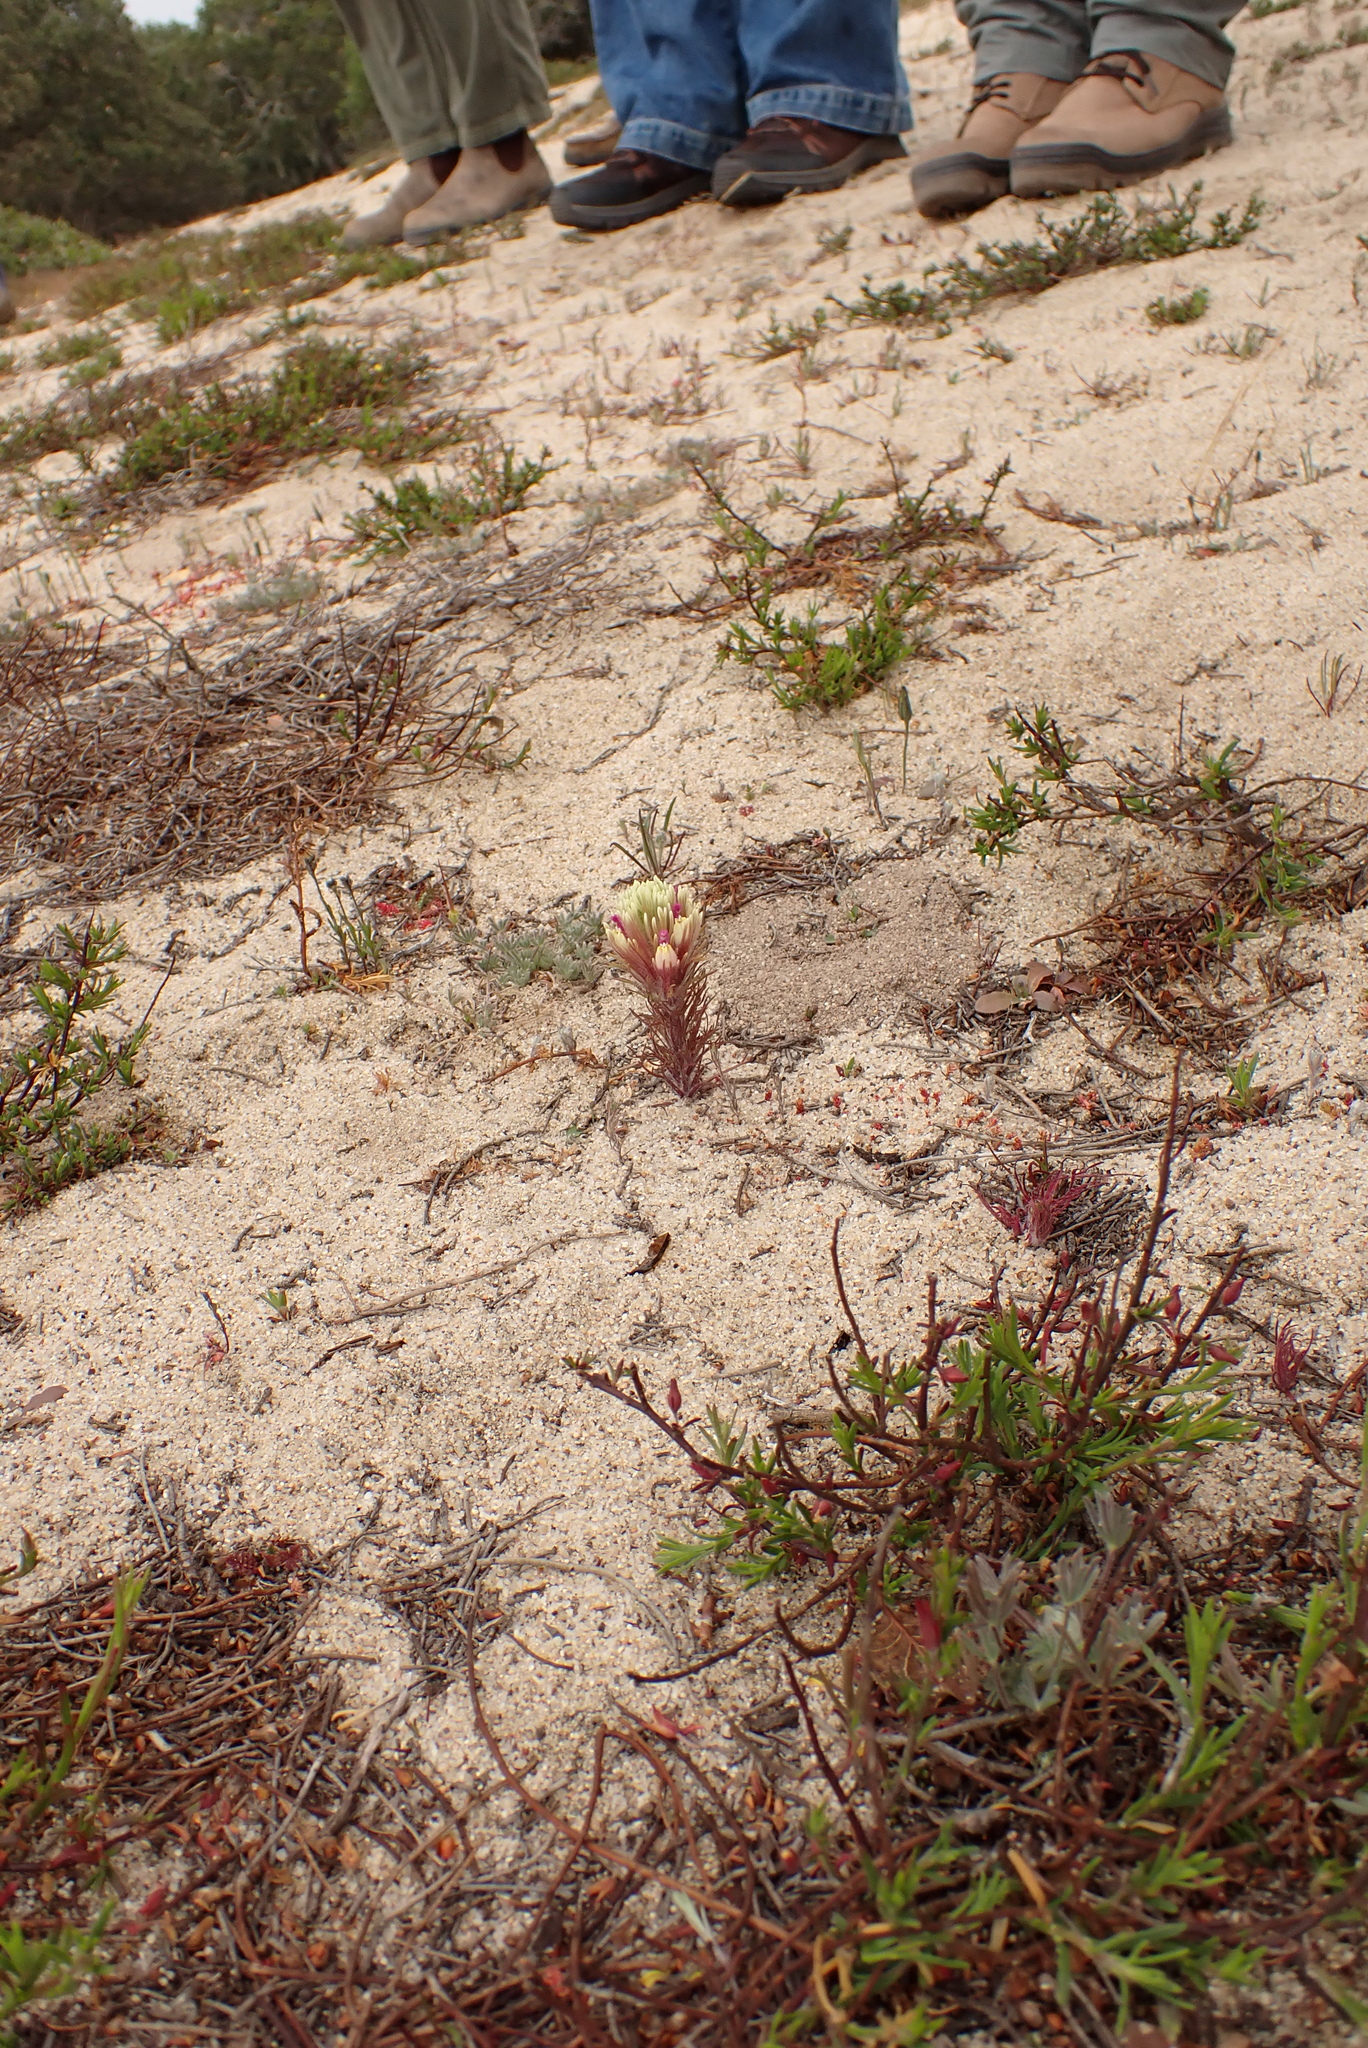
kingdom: Plantae
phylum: Tracheophyta
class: Magnoliopsida
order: Lamiales
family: Orobanchaceae
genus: Castilleja
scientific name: Castilleja exserta
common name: Purple owl-clover
